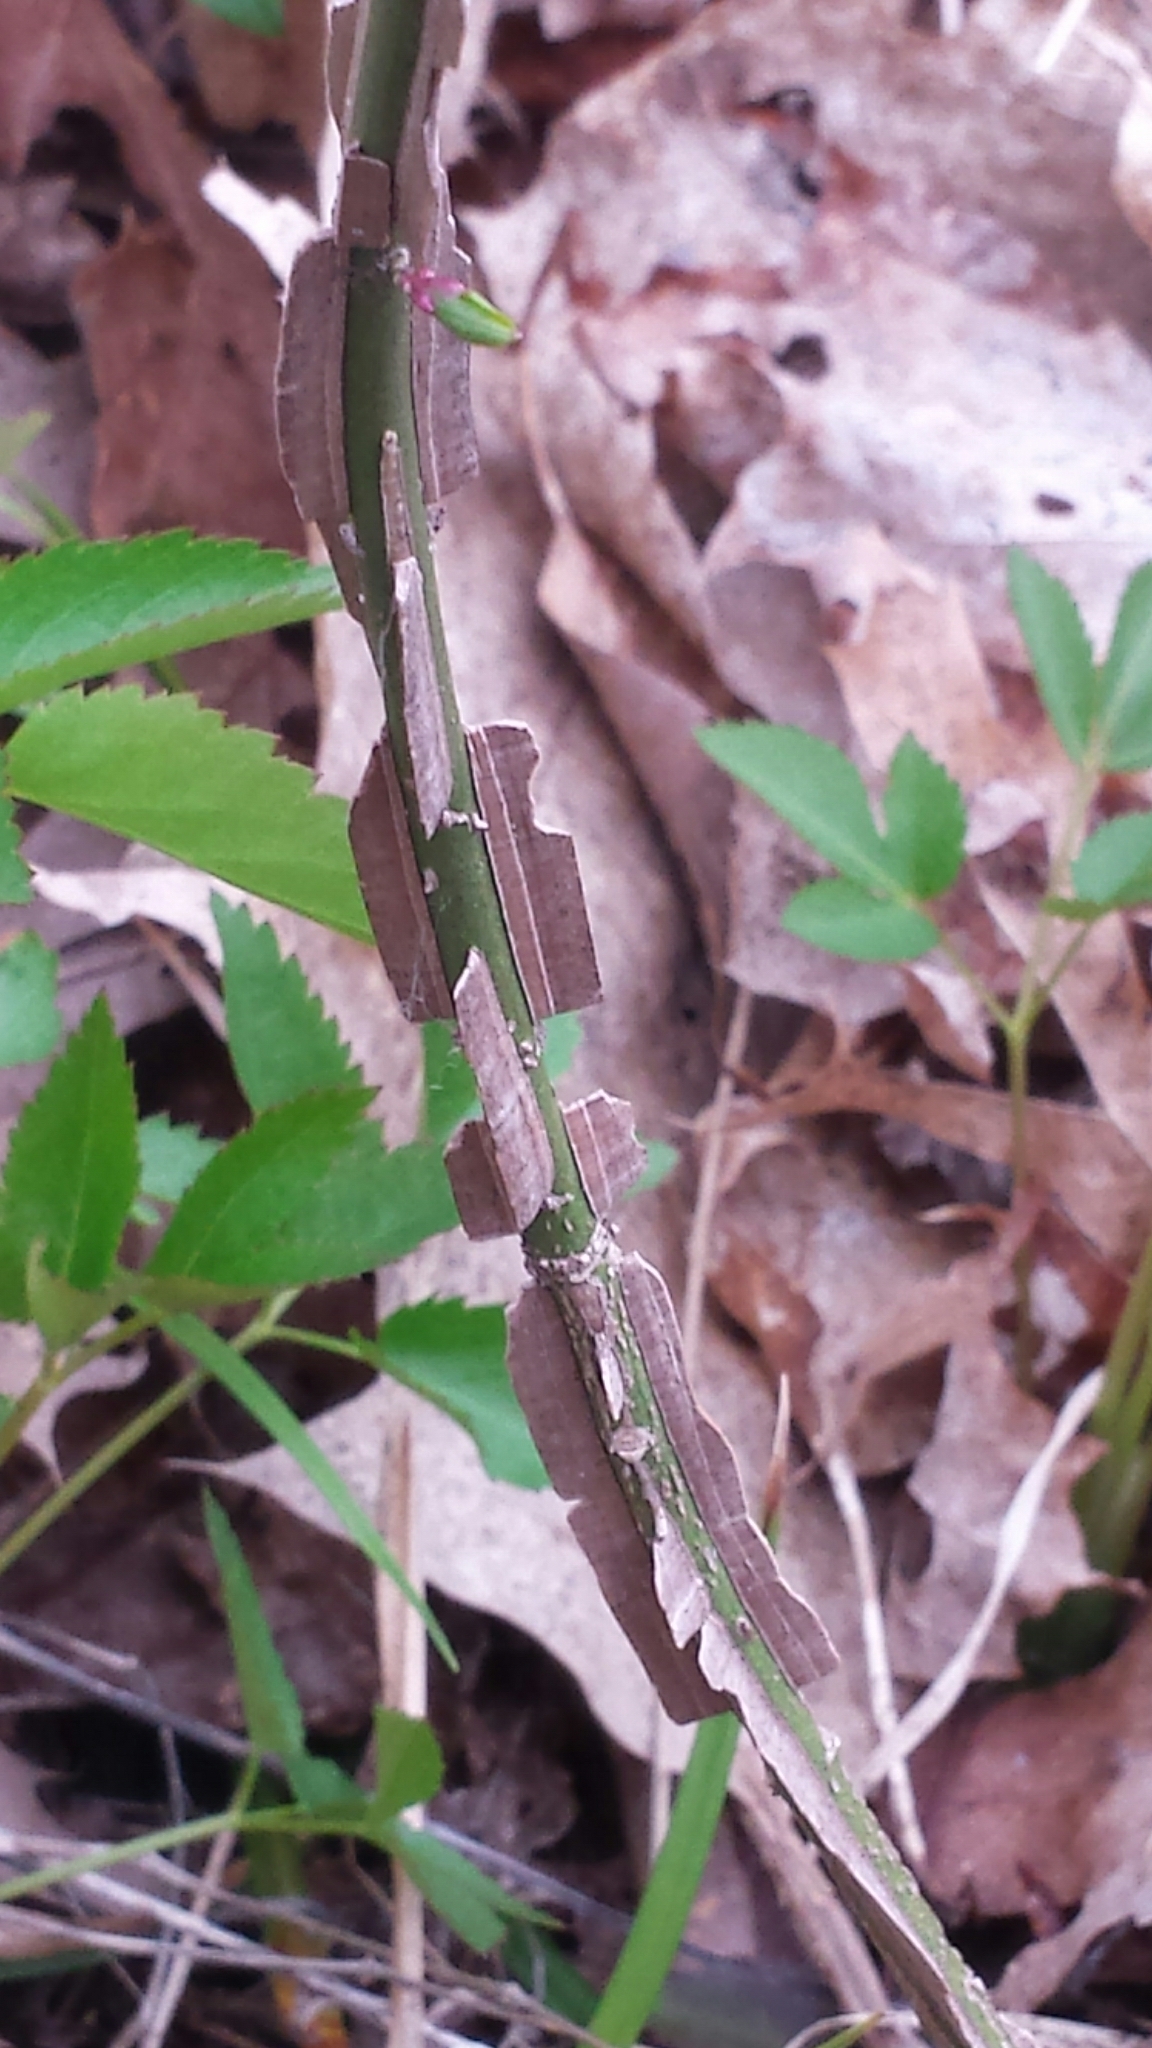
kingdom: Plantae
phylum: Tracheophyta
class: Magnoliopsida
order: Celastrales
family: Celastraceae
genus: Euonymus
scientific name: Euonymus alatus
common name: Winged euonymus
